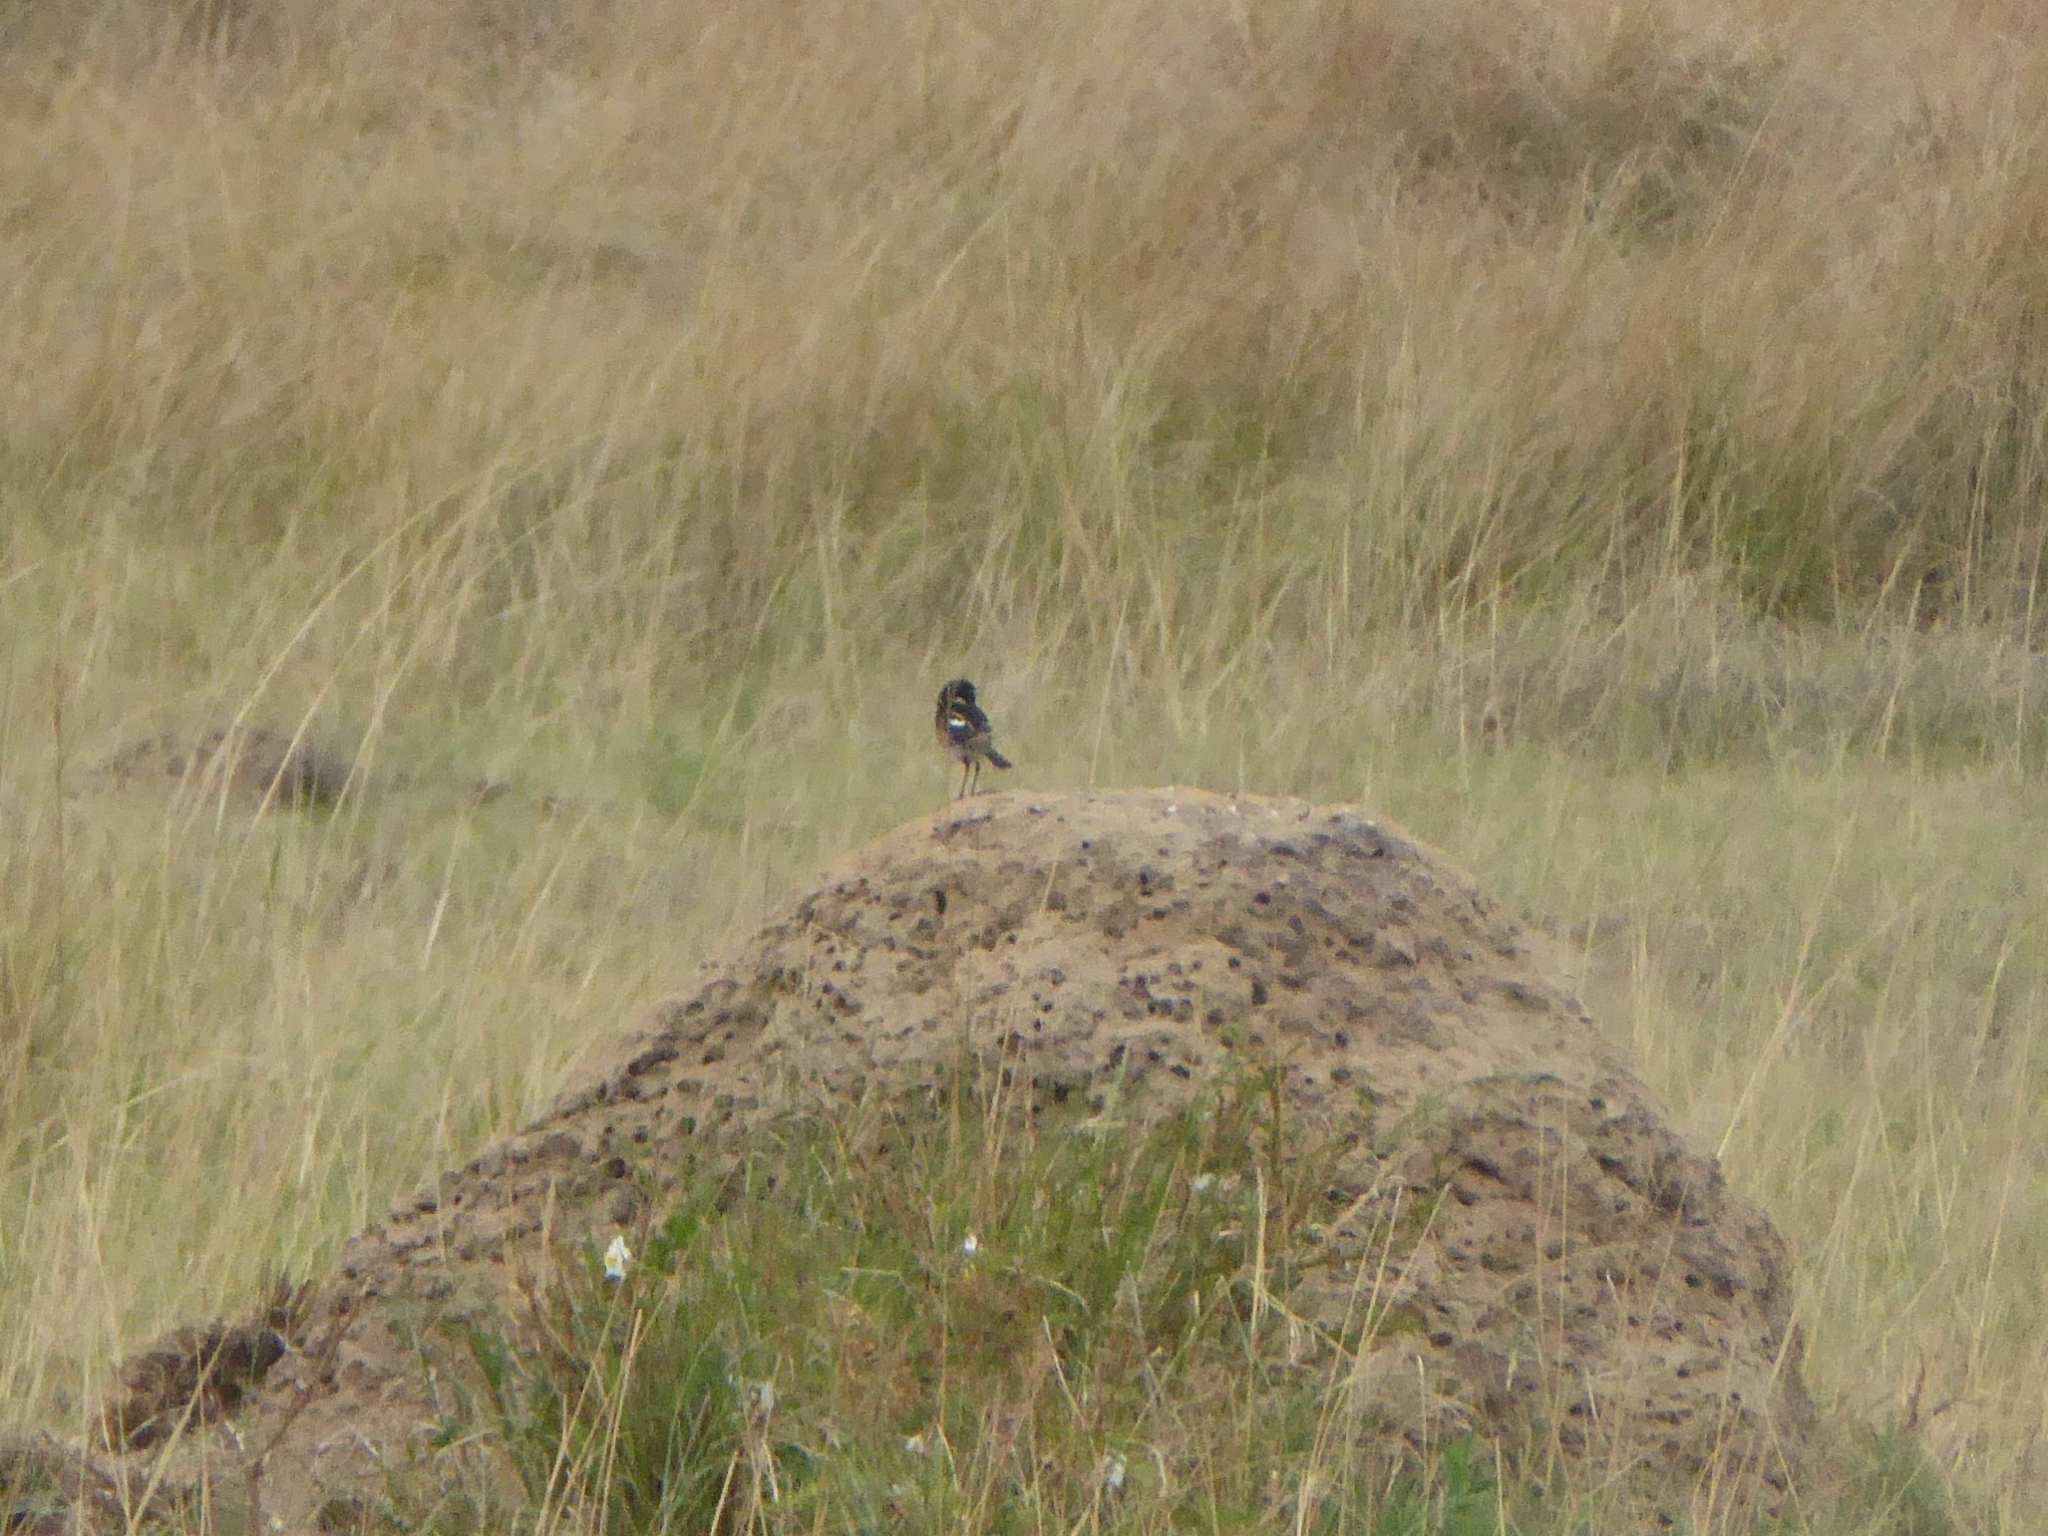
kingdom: Animalia
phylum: Chordata
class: Aves
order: Passeriformes
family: Muscicapidae
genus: Saxicola
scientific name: Saxicola torquatus
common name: African stonechat
